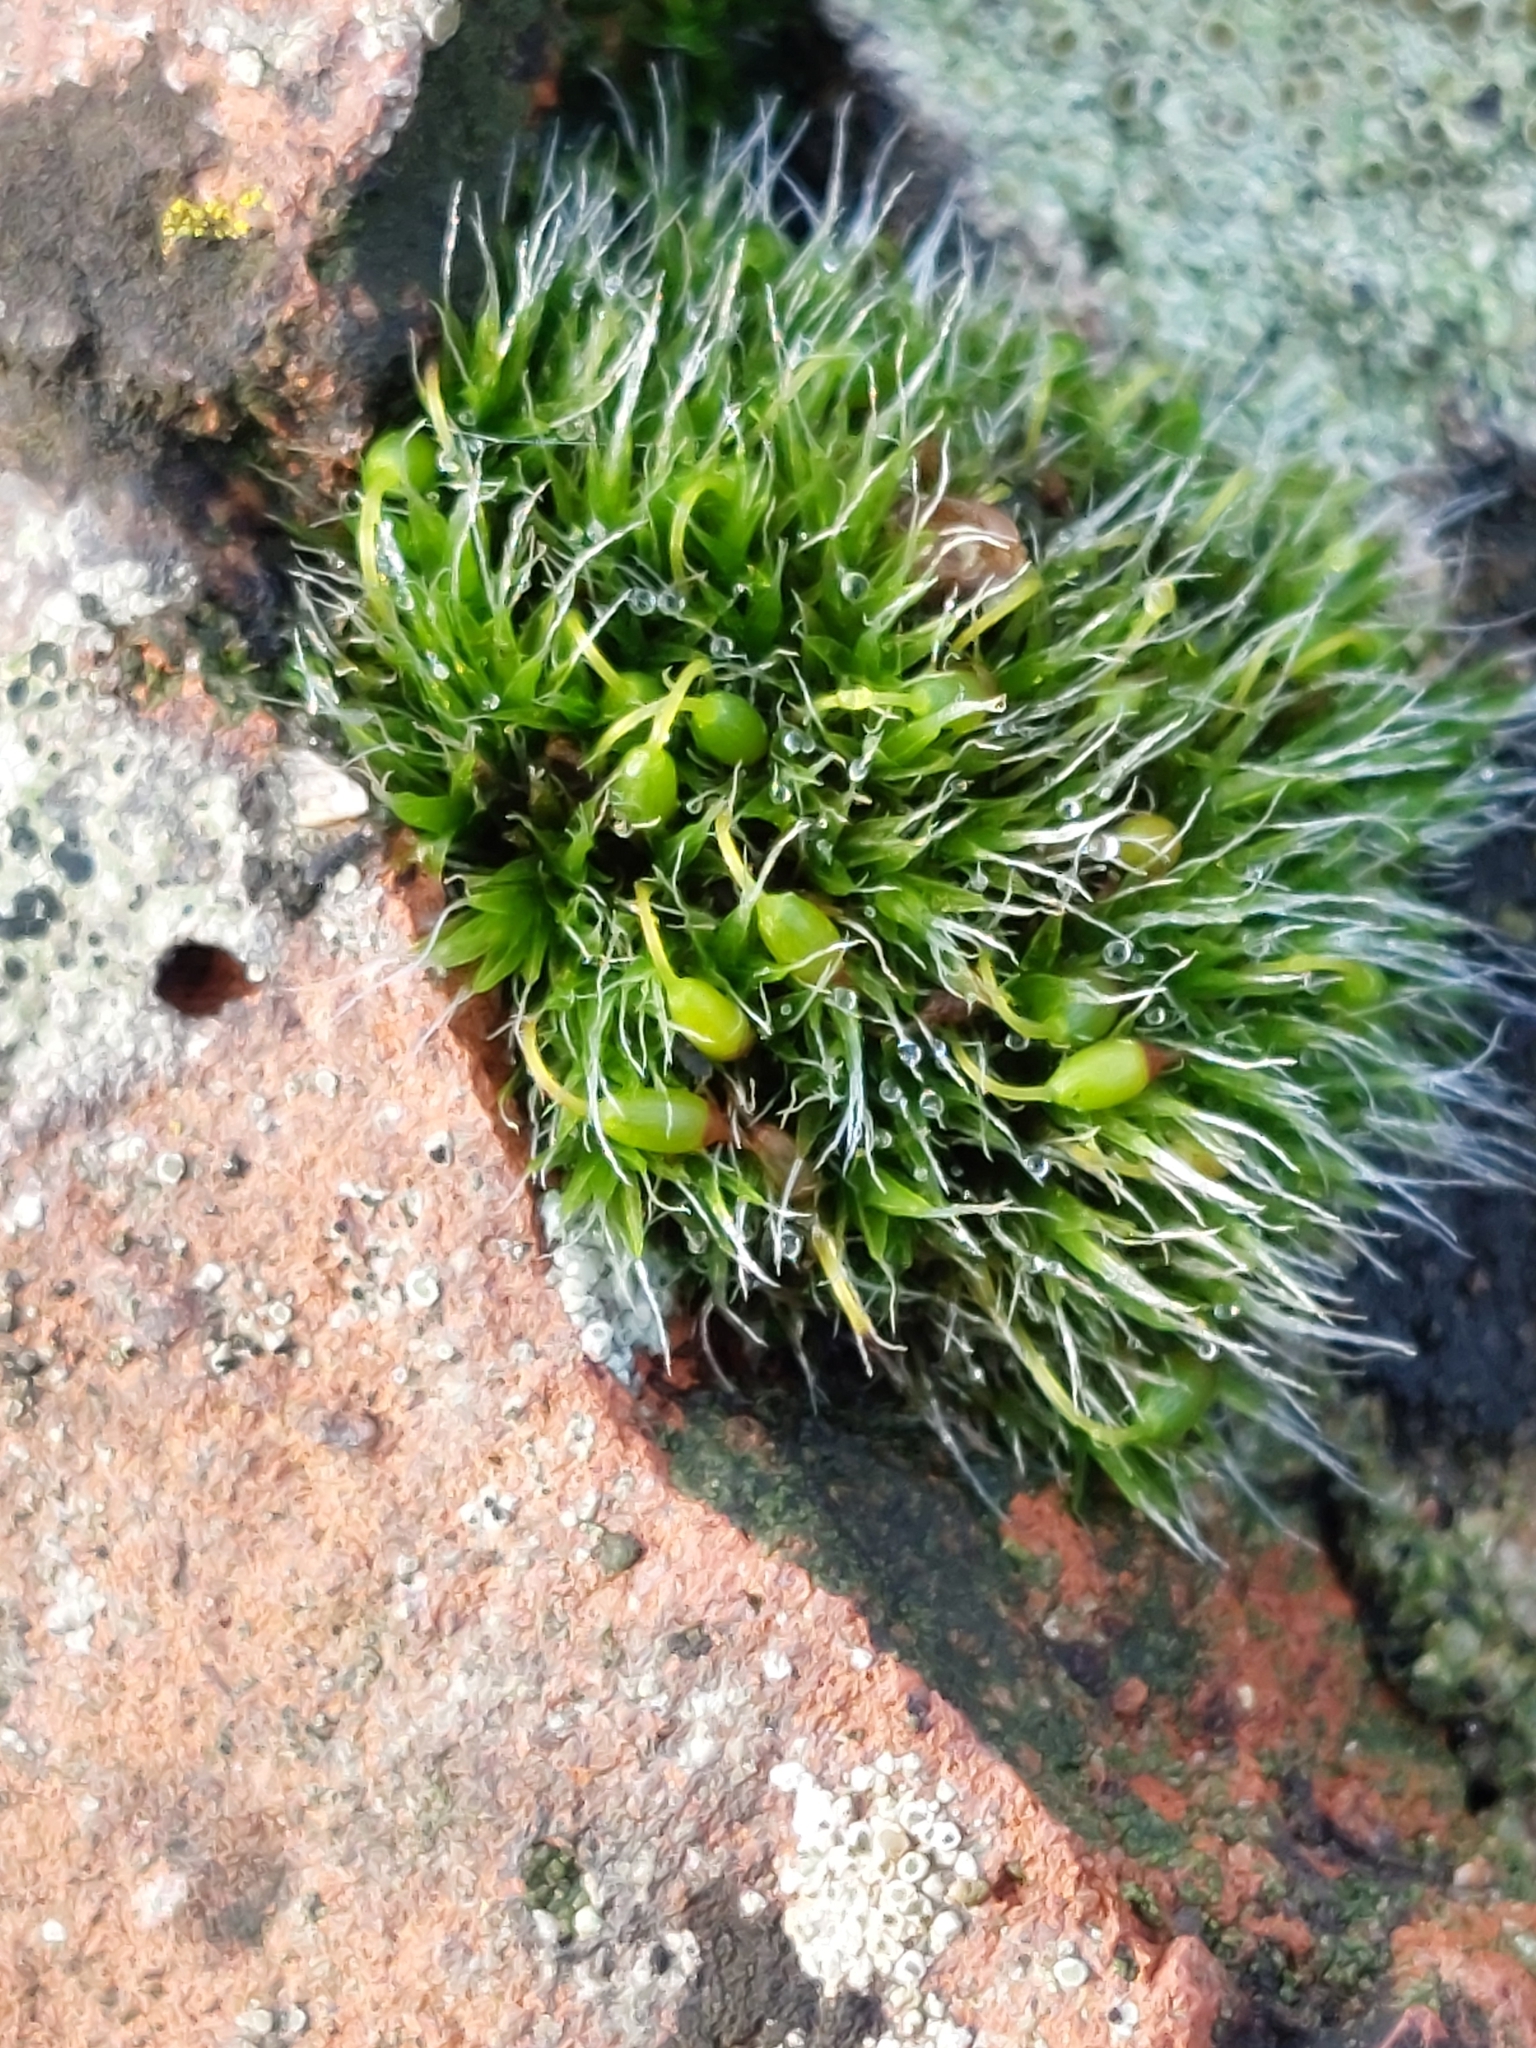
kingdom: Plantae
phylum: Bryophyta
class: Bryopsida
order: Grimmiales
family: Grimmiaceae
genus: Grimmia
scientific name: Grimmia pulvinata
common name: Grey-cushioned grimmia
